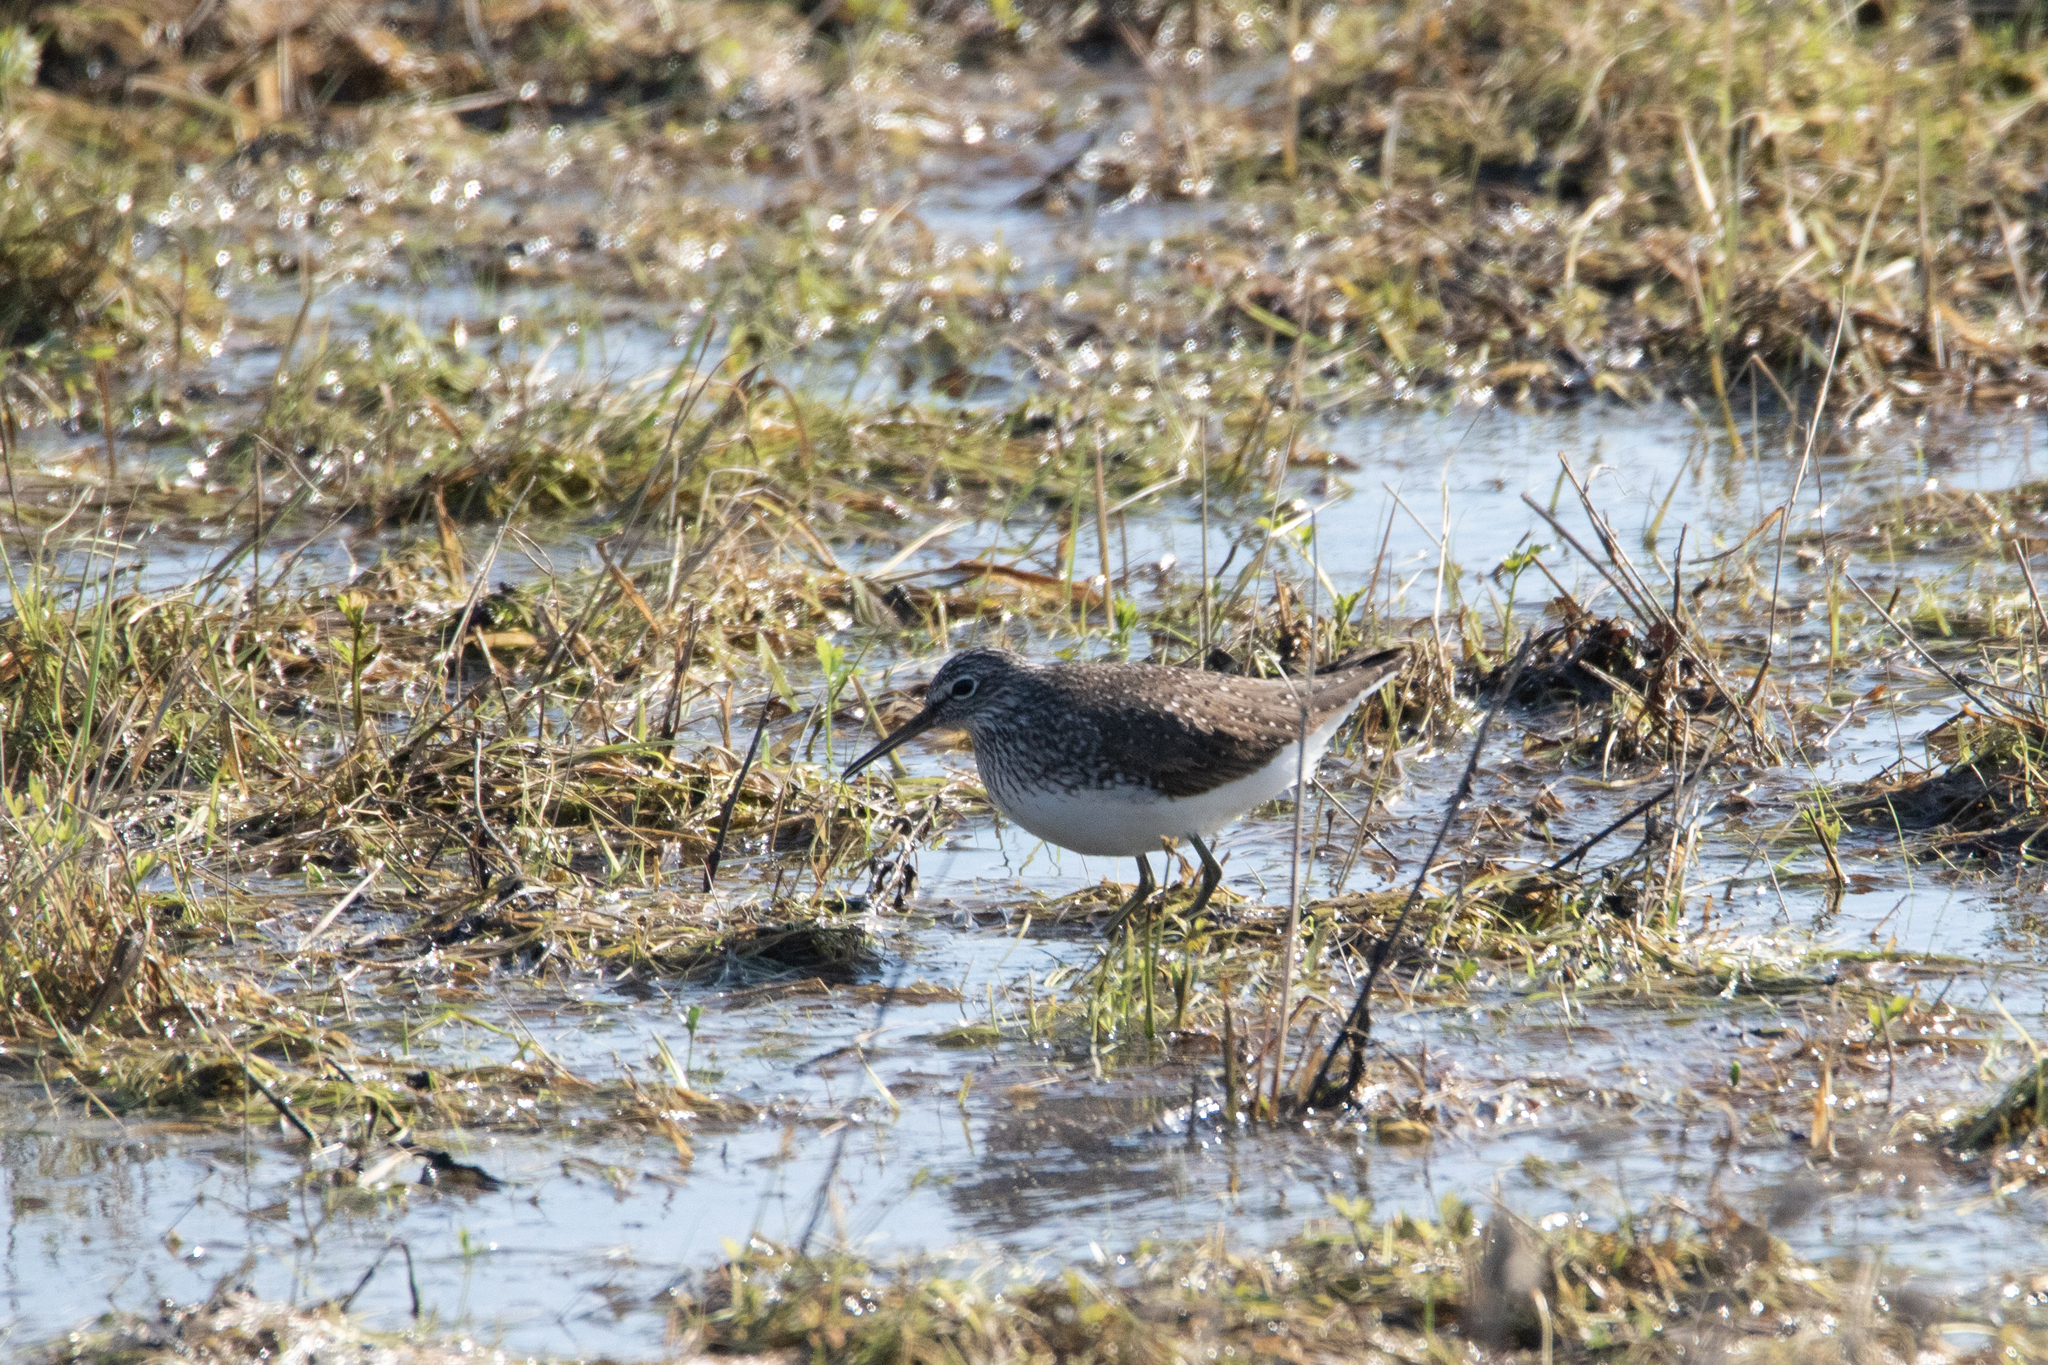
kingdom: Animalia
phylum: Chordata
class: Aves
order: Charadriiformes
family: Scolopacidae
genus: Tringa
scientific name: Tringa ochropus
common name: Green sandpiper
